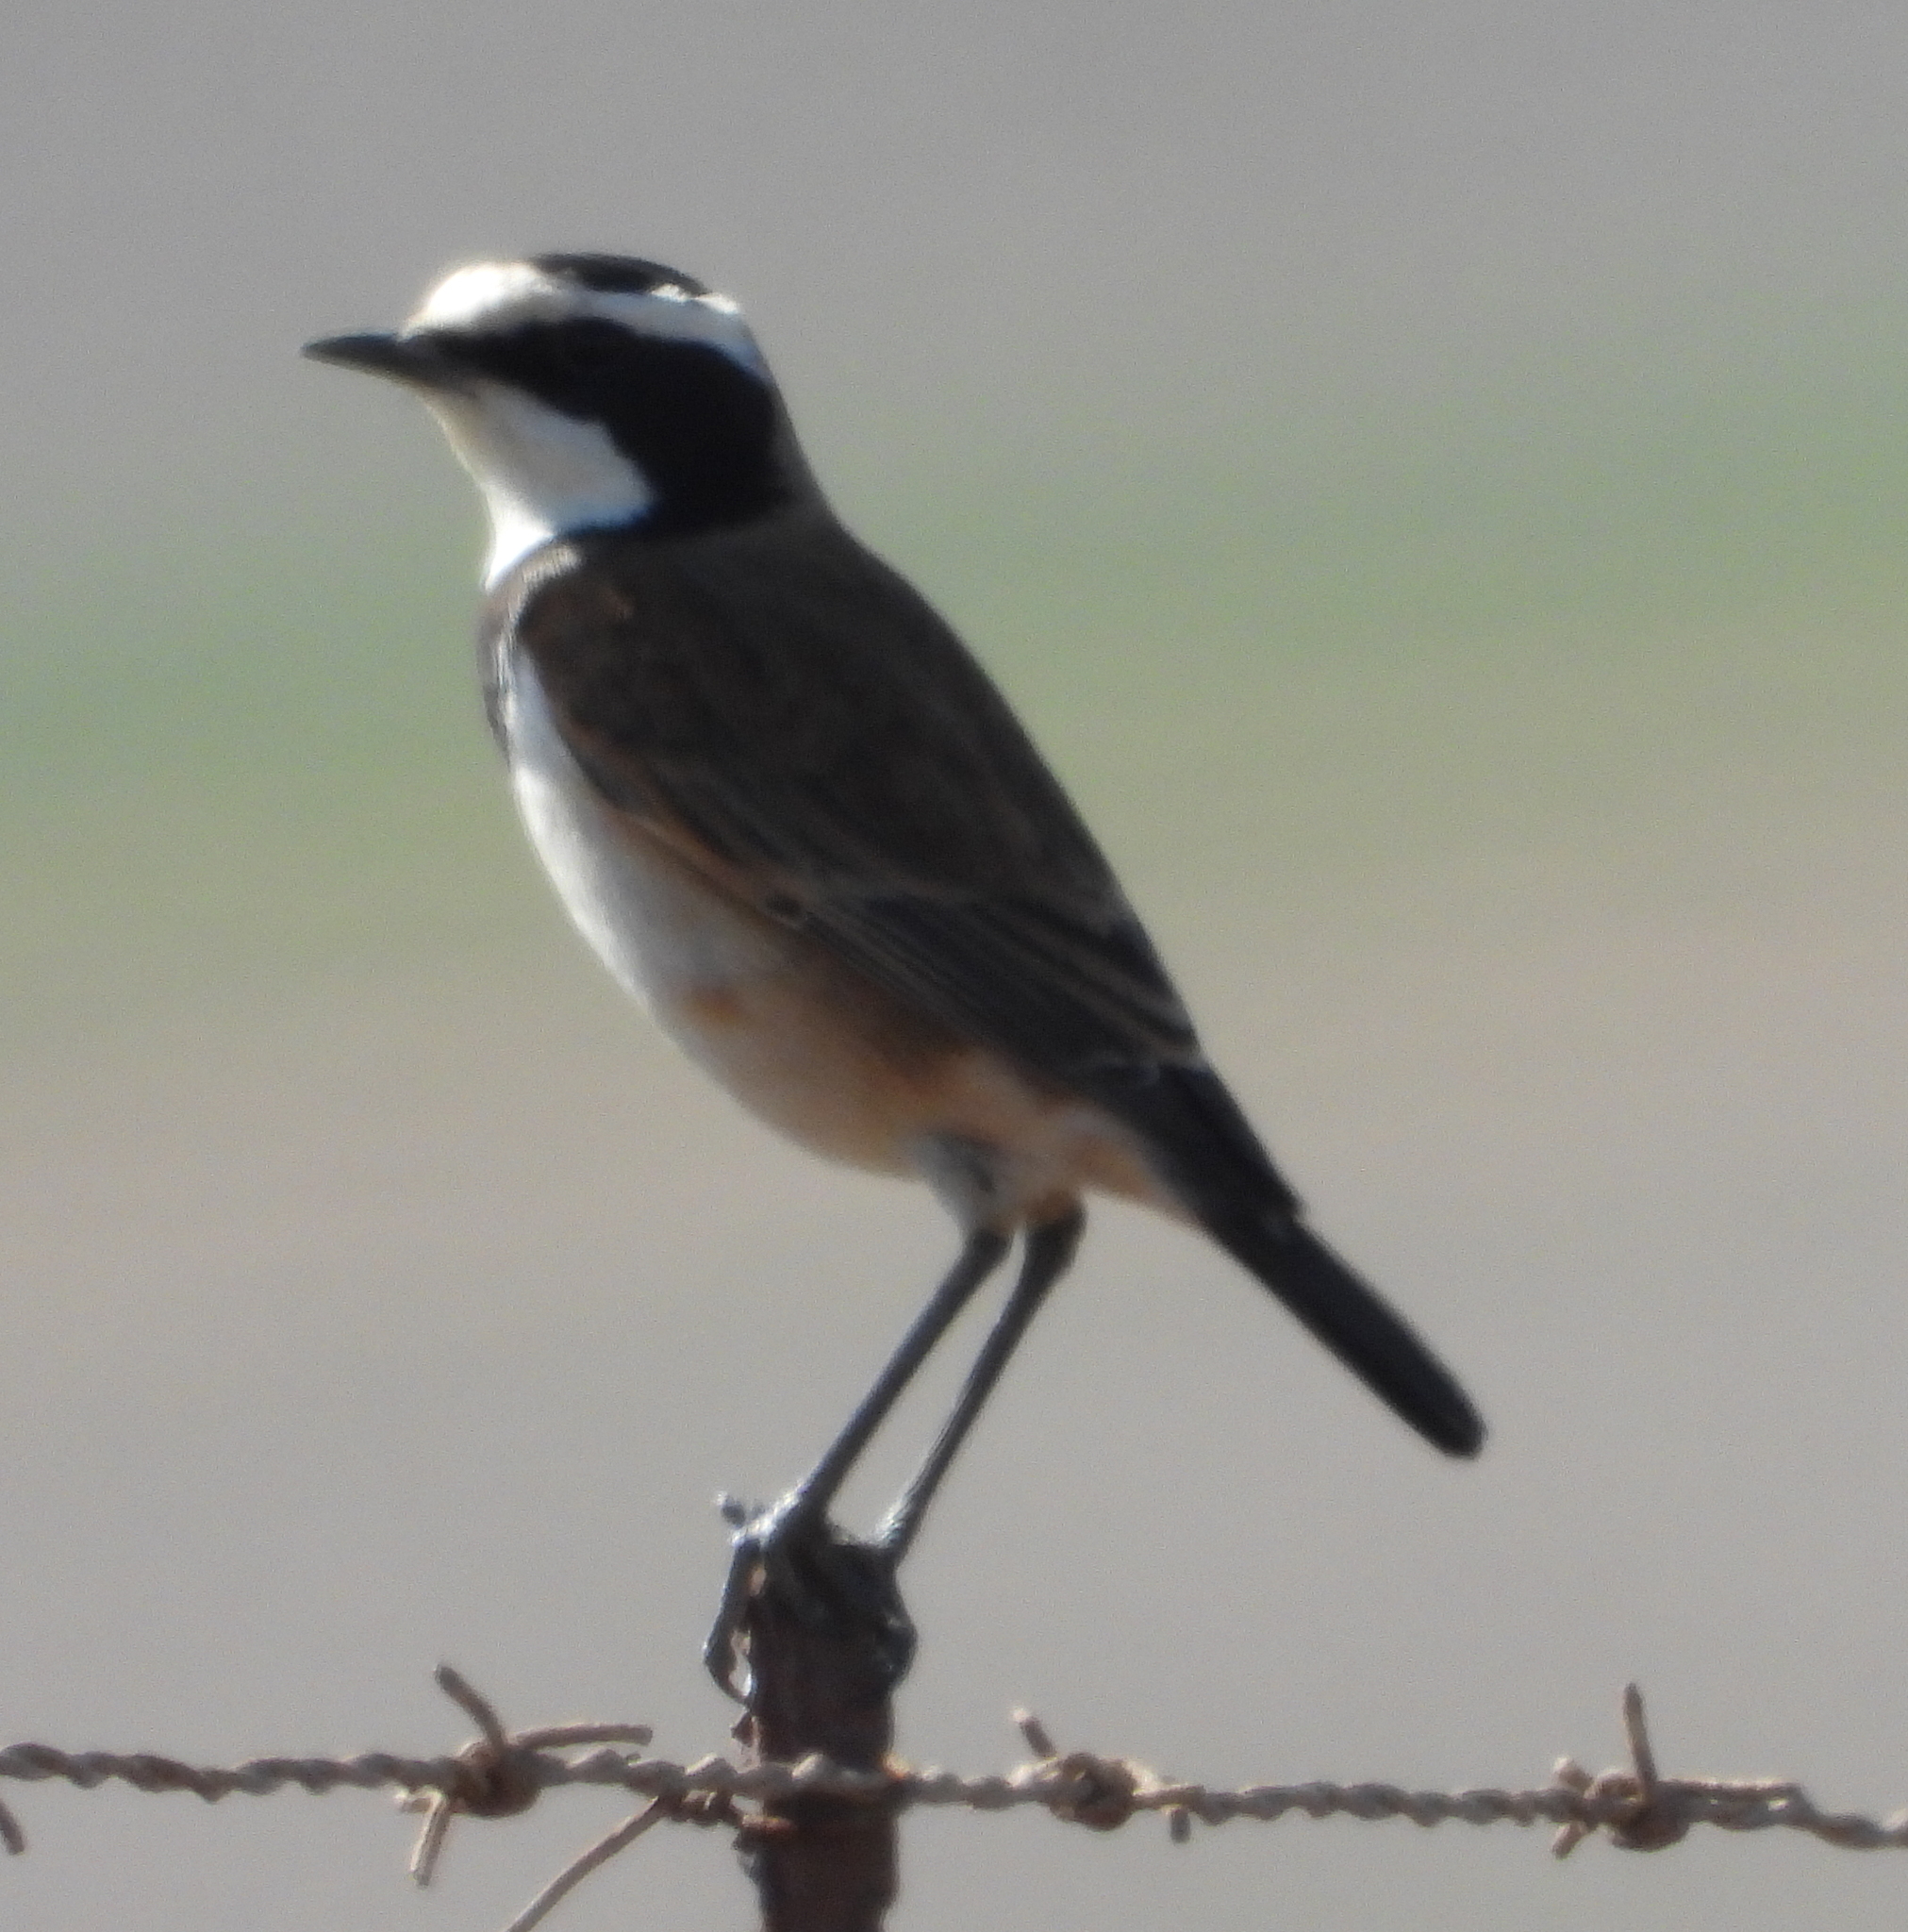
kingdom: Animalia
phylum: Chordata
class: Aves
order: Passeriformes
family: Muscicapidae
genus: Oenanthe
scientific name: Oenanthe pileata
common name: Capped wheatear
